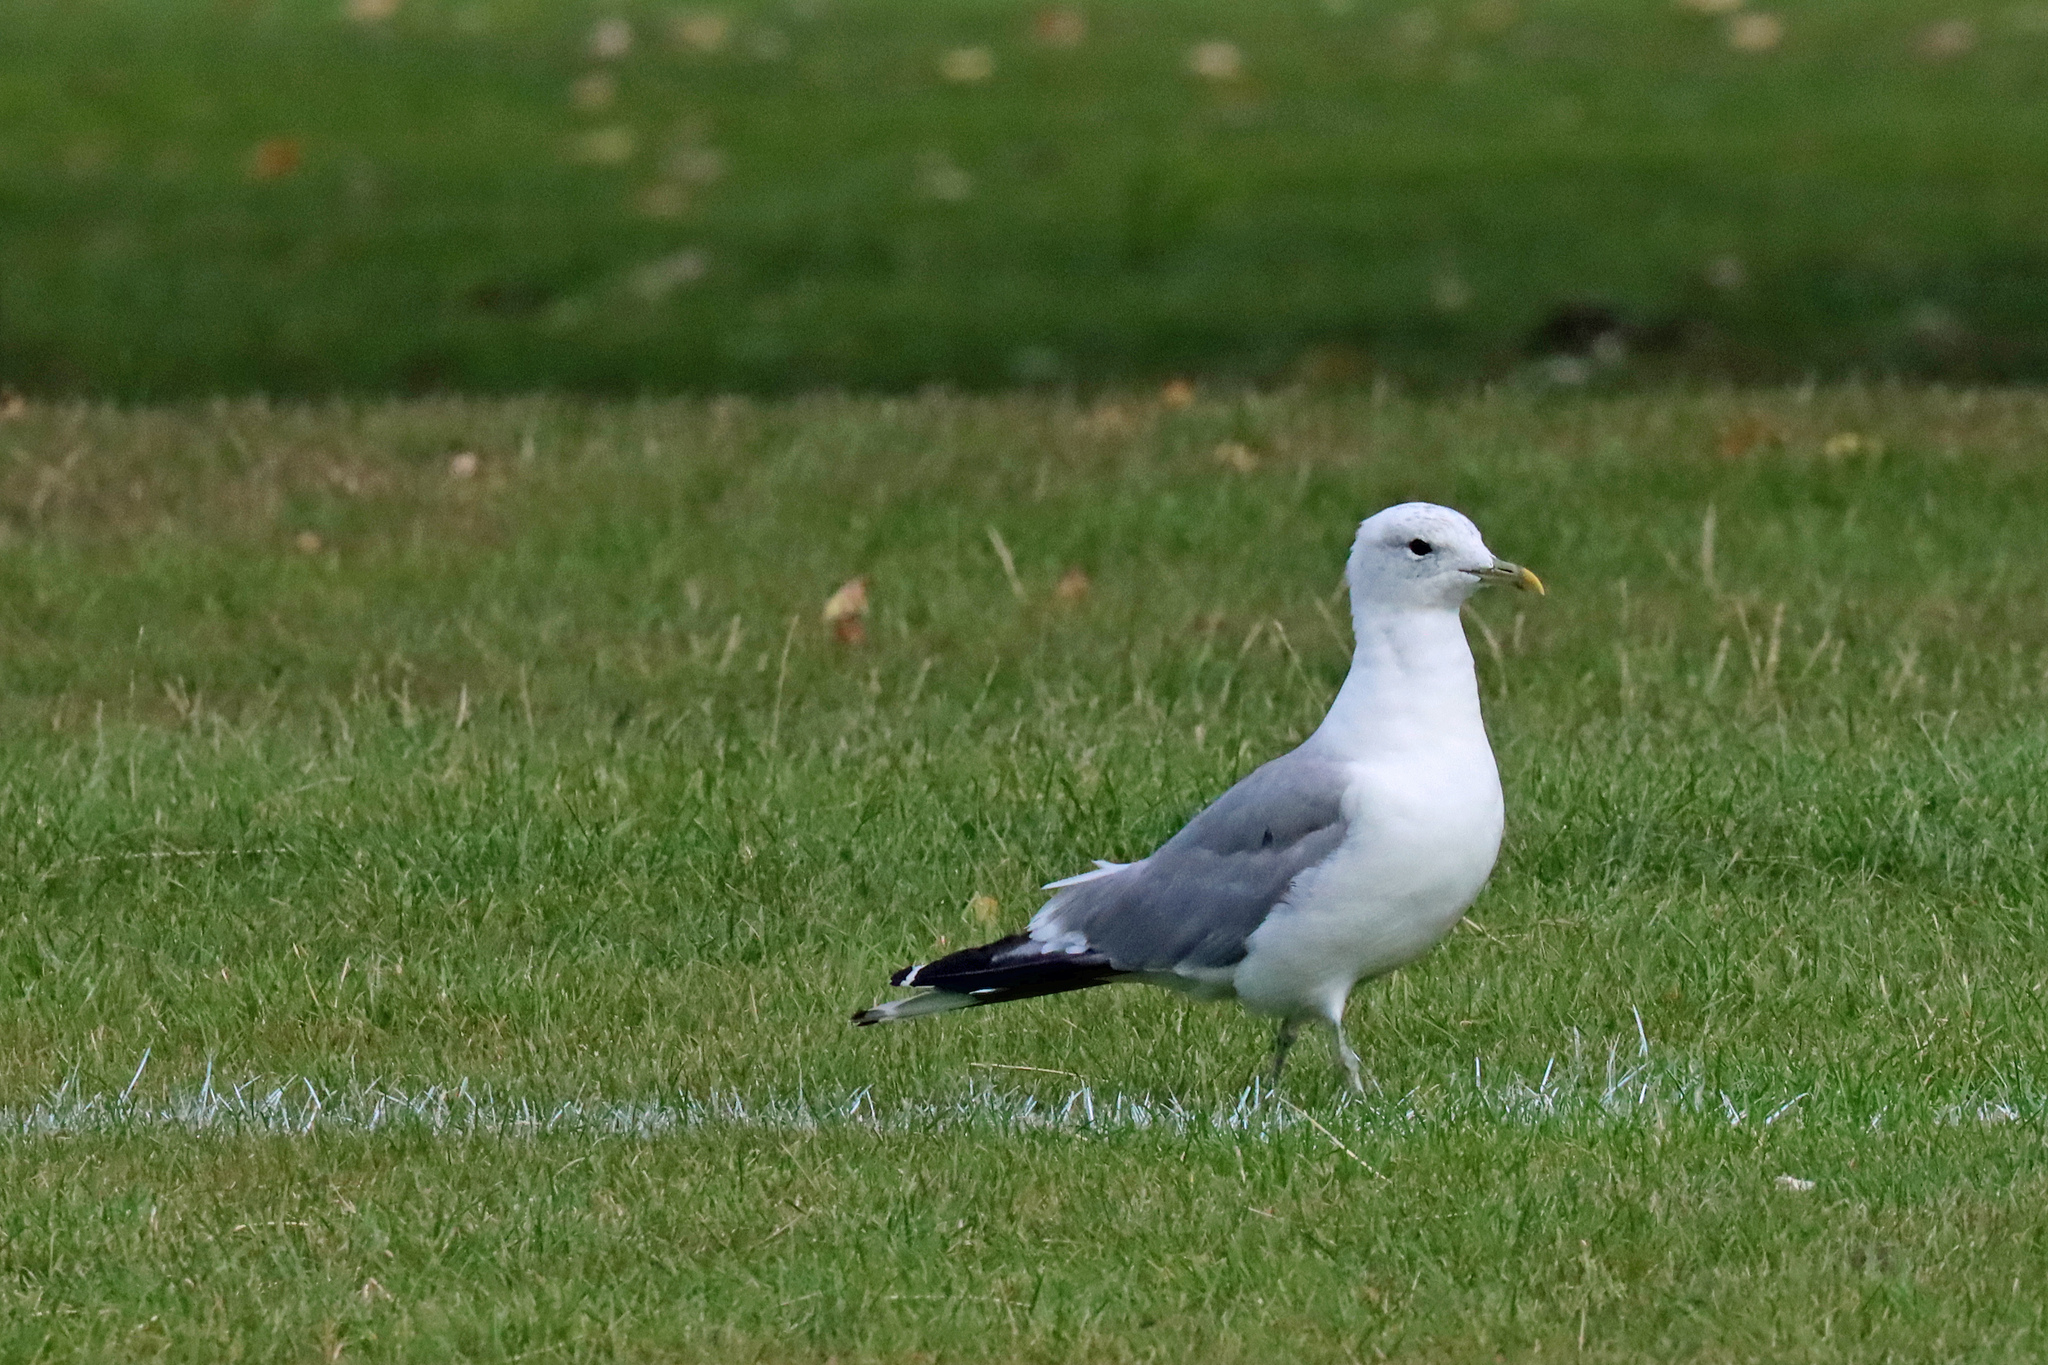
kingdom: Animalia
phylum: Chordata
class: Aves
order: Charadriiformes
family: Laridae
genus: Larus
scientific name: Larus canus
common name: Mew gull
